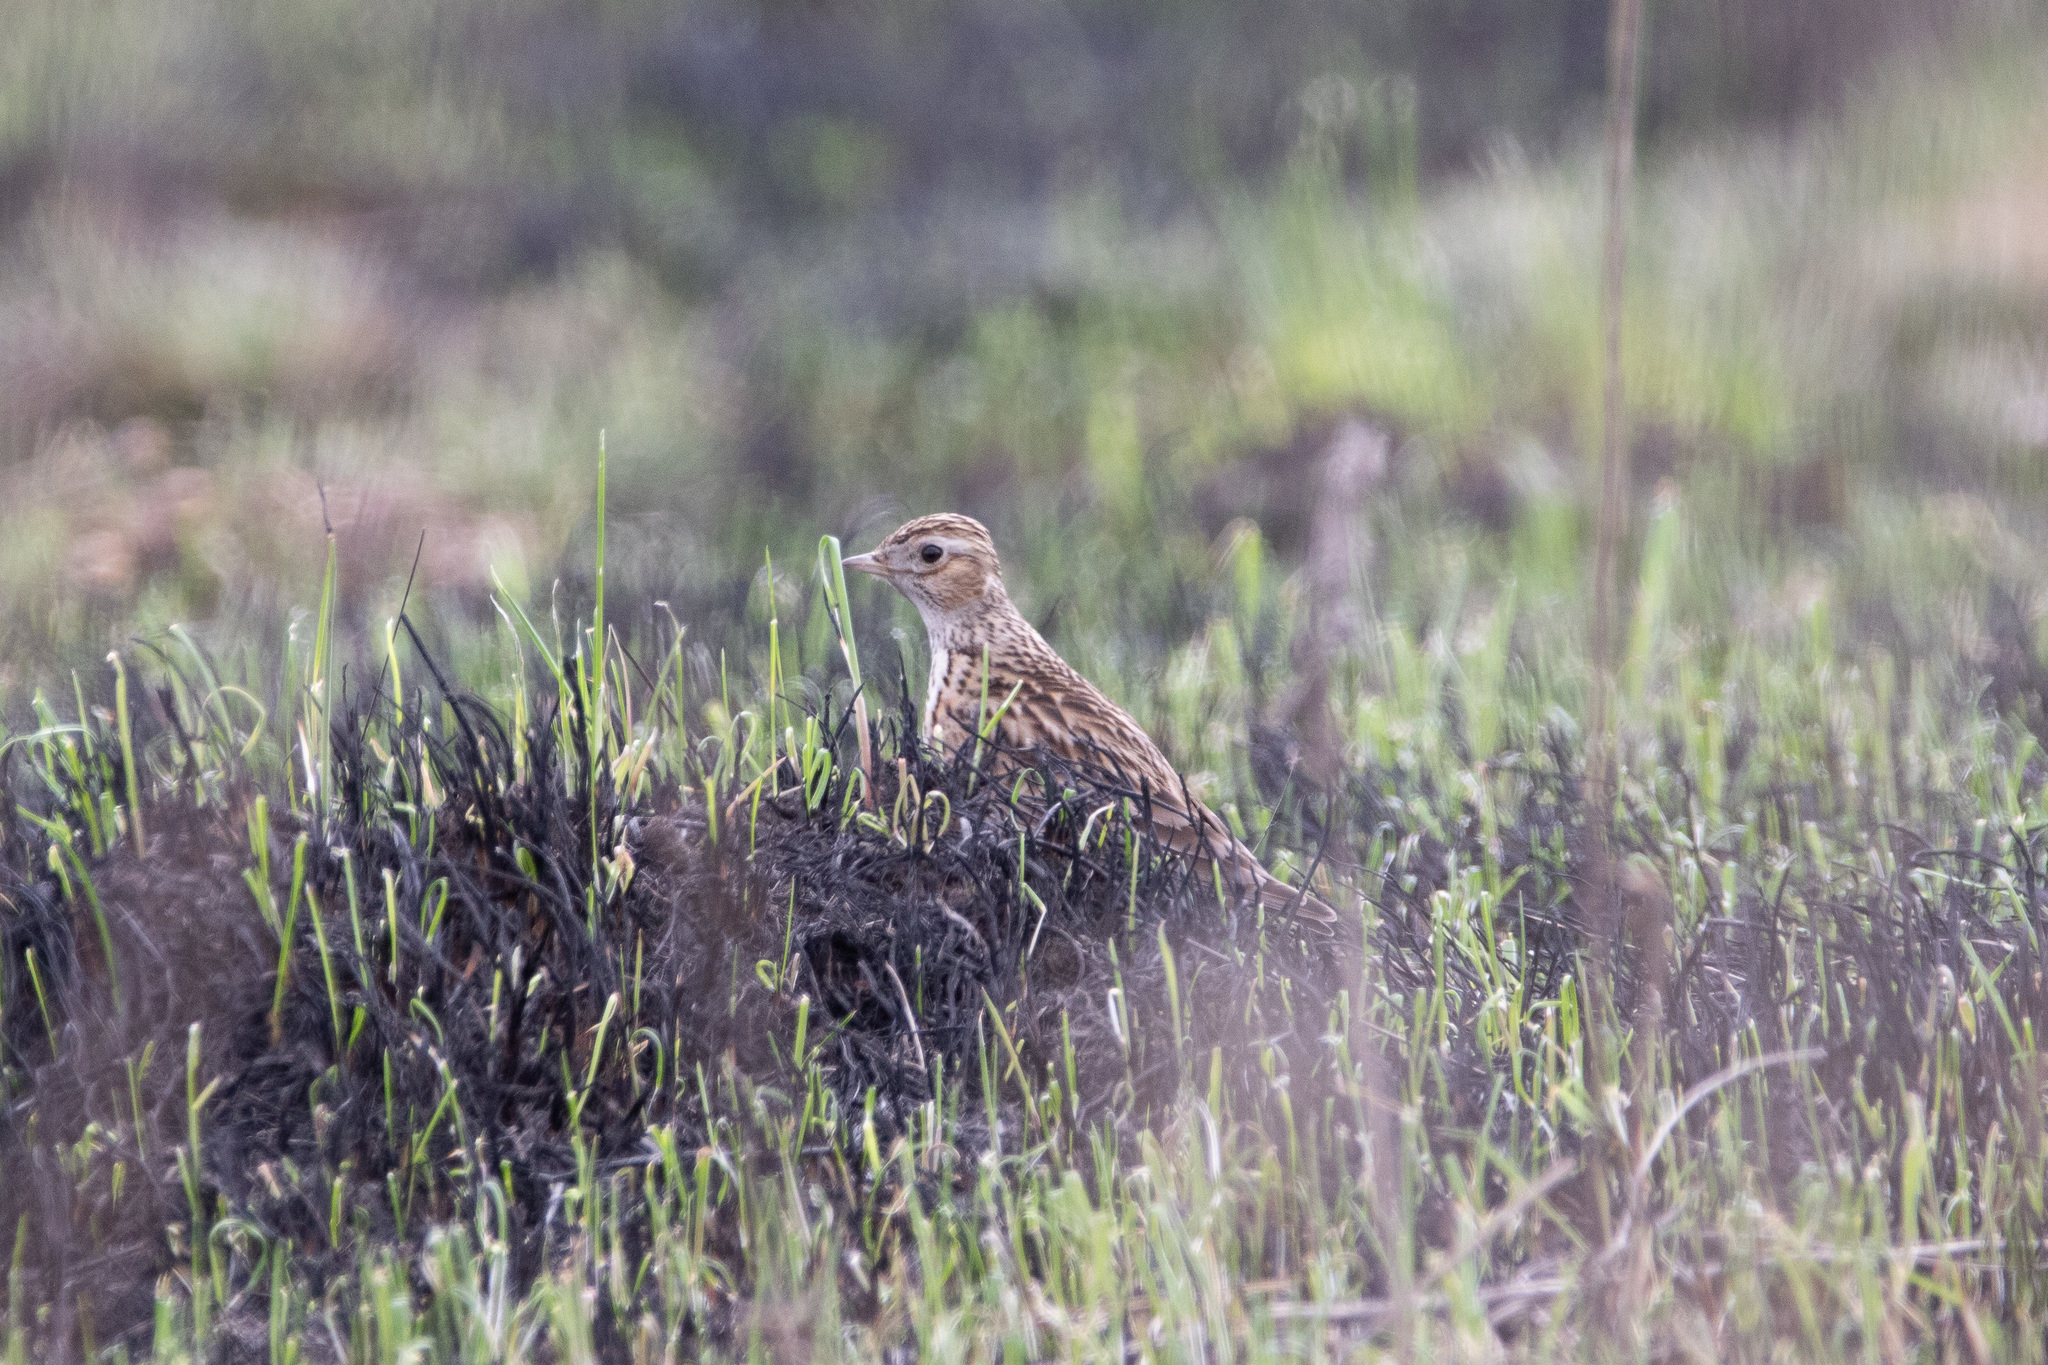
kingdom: Animalia
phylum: Chordata
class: Aves
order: Passeriformes
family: Alaudidae
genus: Alauda
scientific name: Alauda arvensis
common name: Eurasian skylark
